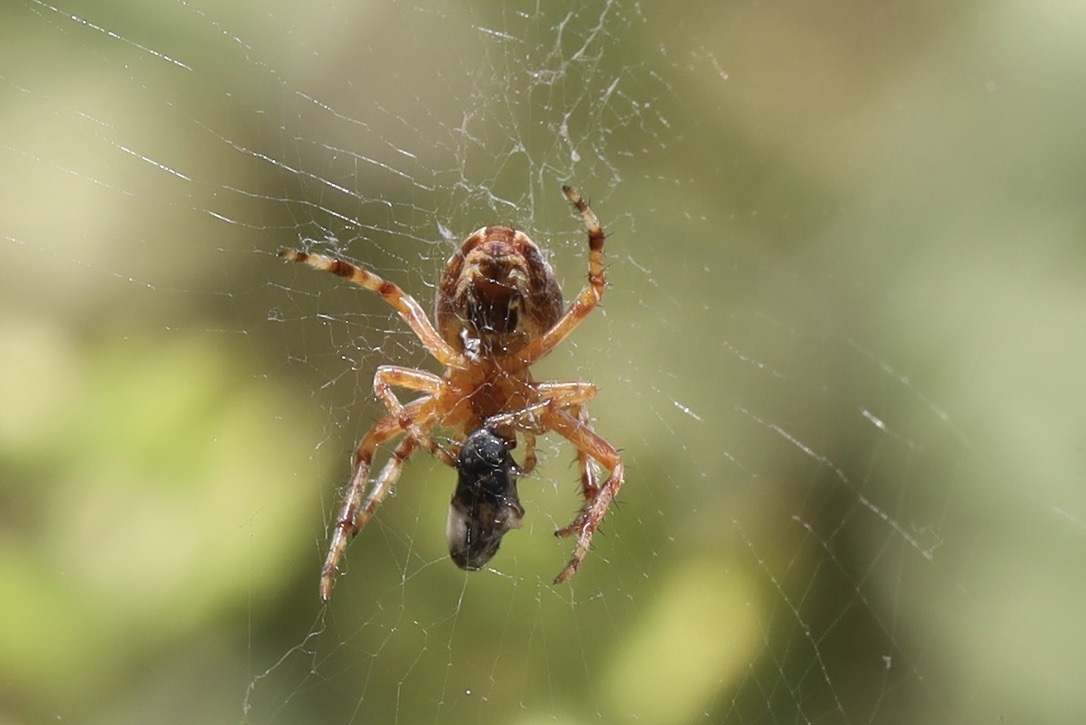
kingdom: Animalia
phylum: Arthropoda
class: Arachnida
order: Araneae
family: Araneidae
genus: Araneus
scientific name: Araneus diadematus
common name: Cross orbweaver
